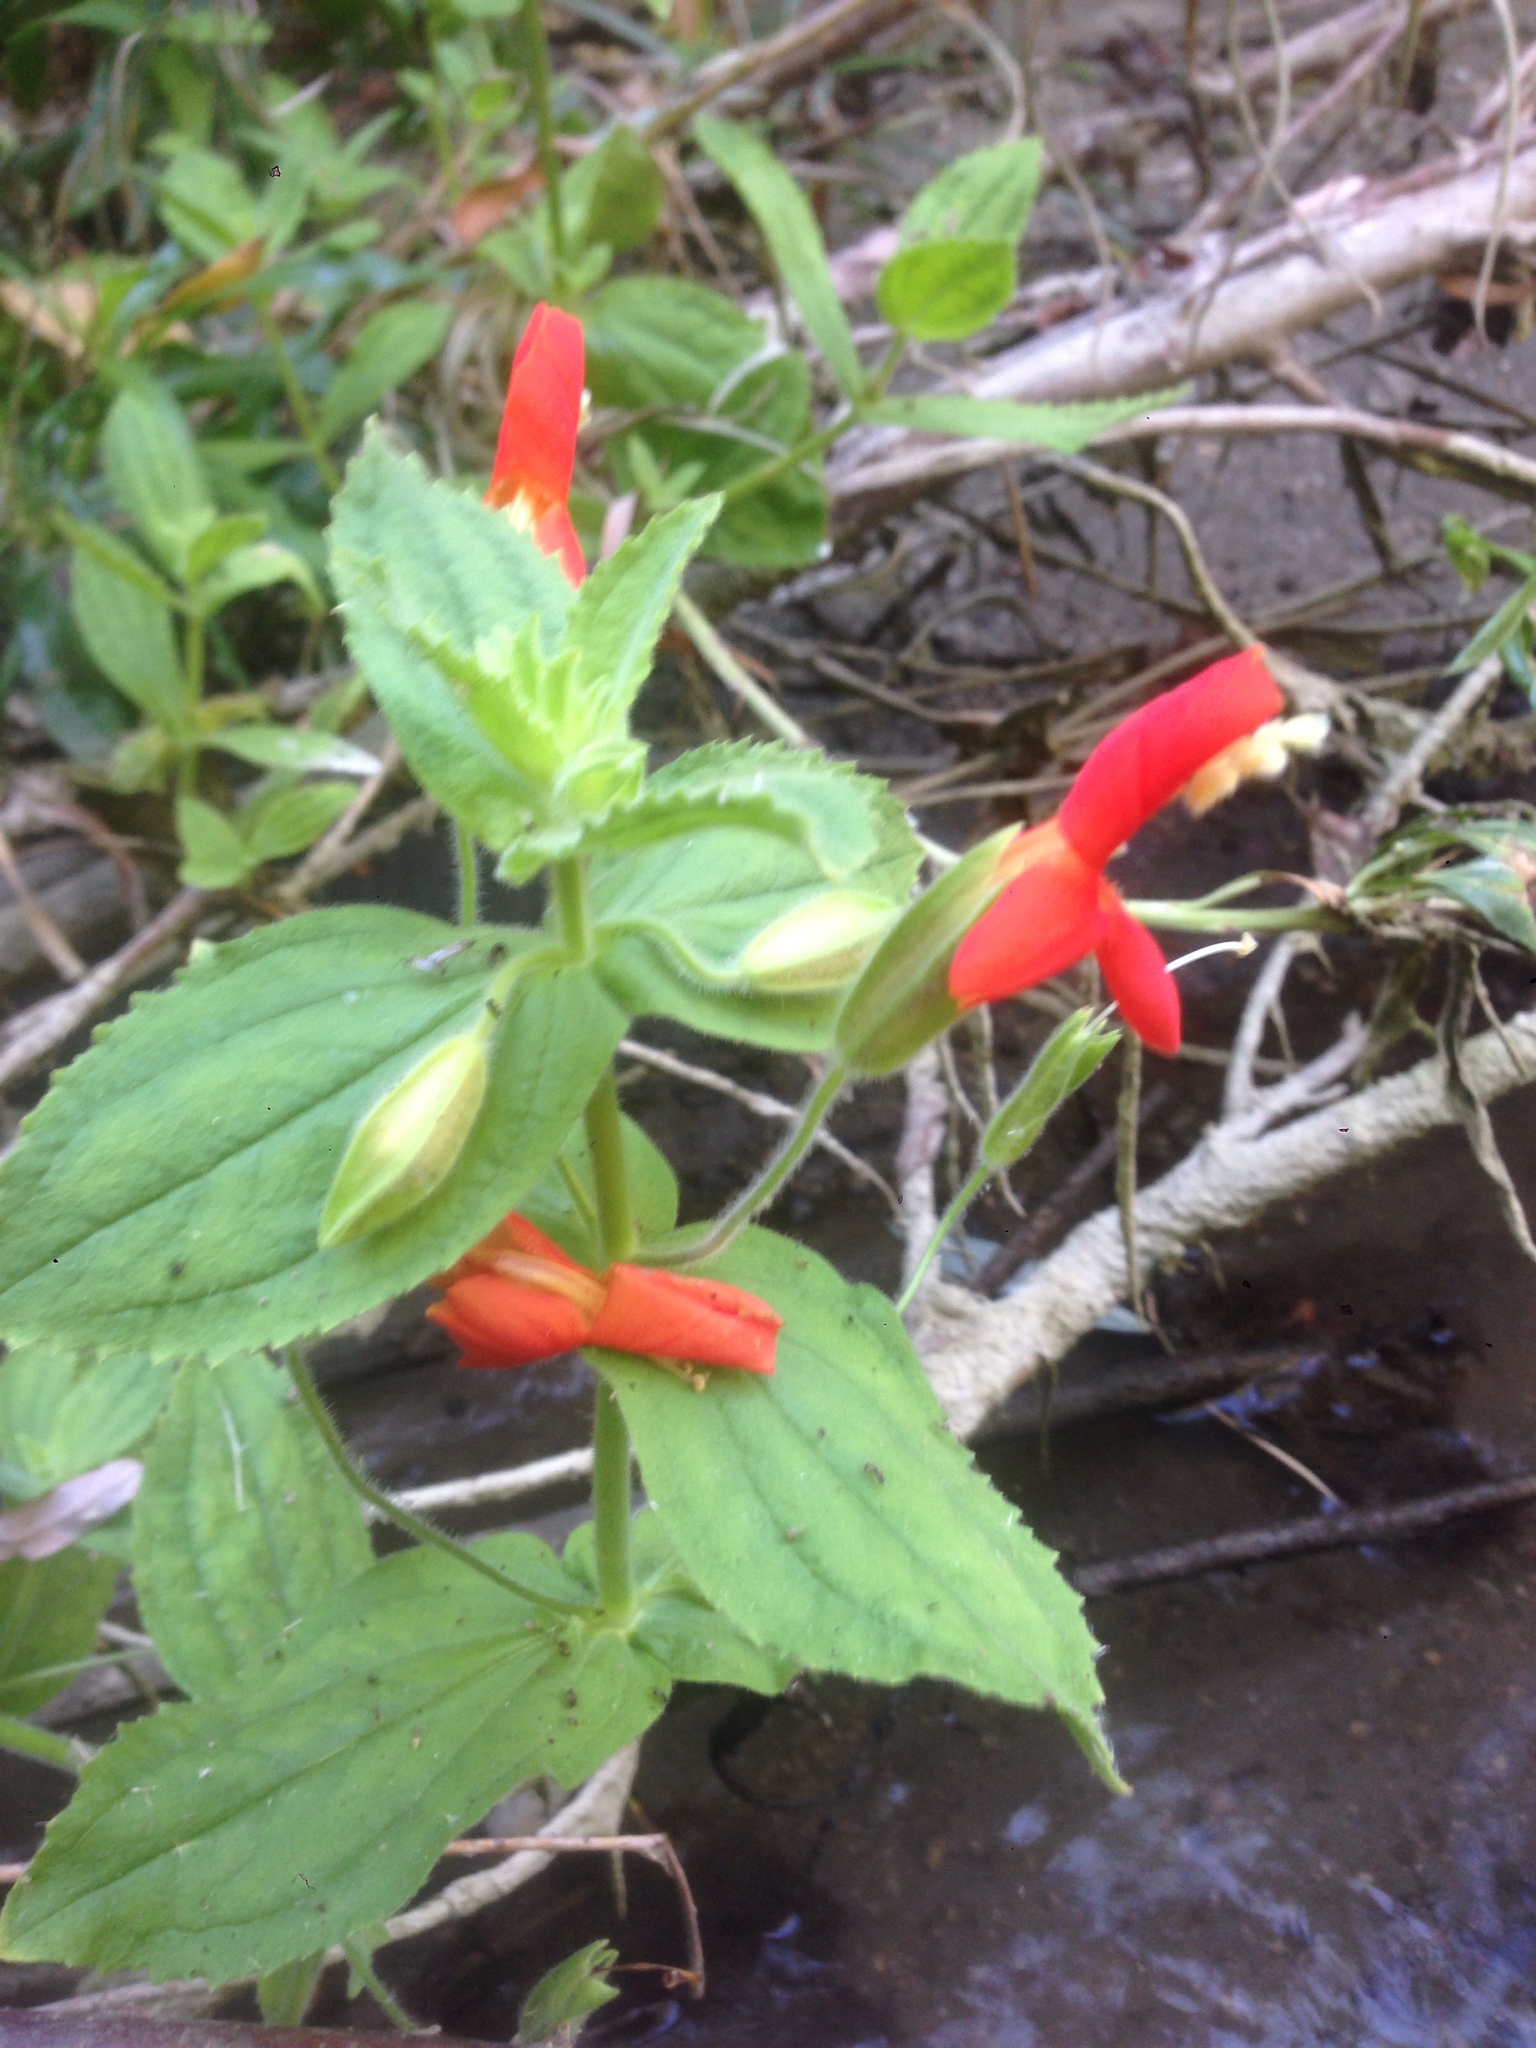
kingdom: Plantae
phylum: Tracheophyta
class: Magnoliopsida
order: Lamiales
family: Phrymaceae
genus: Erythranthe
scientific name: Erythranthe cardinalis
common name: Scarlet monkey-flower
